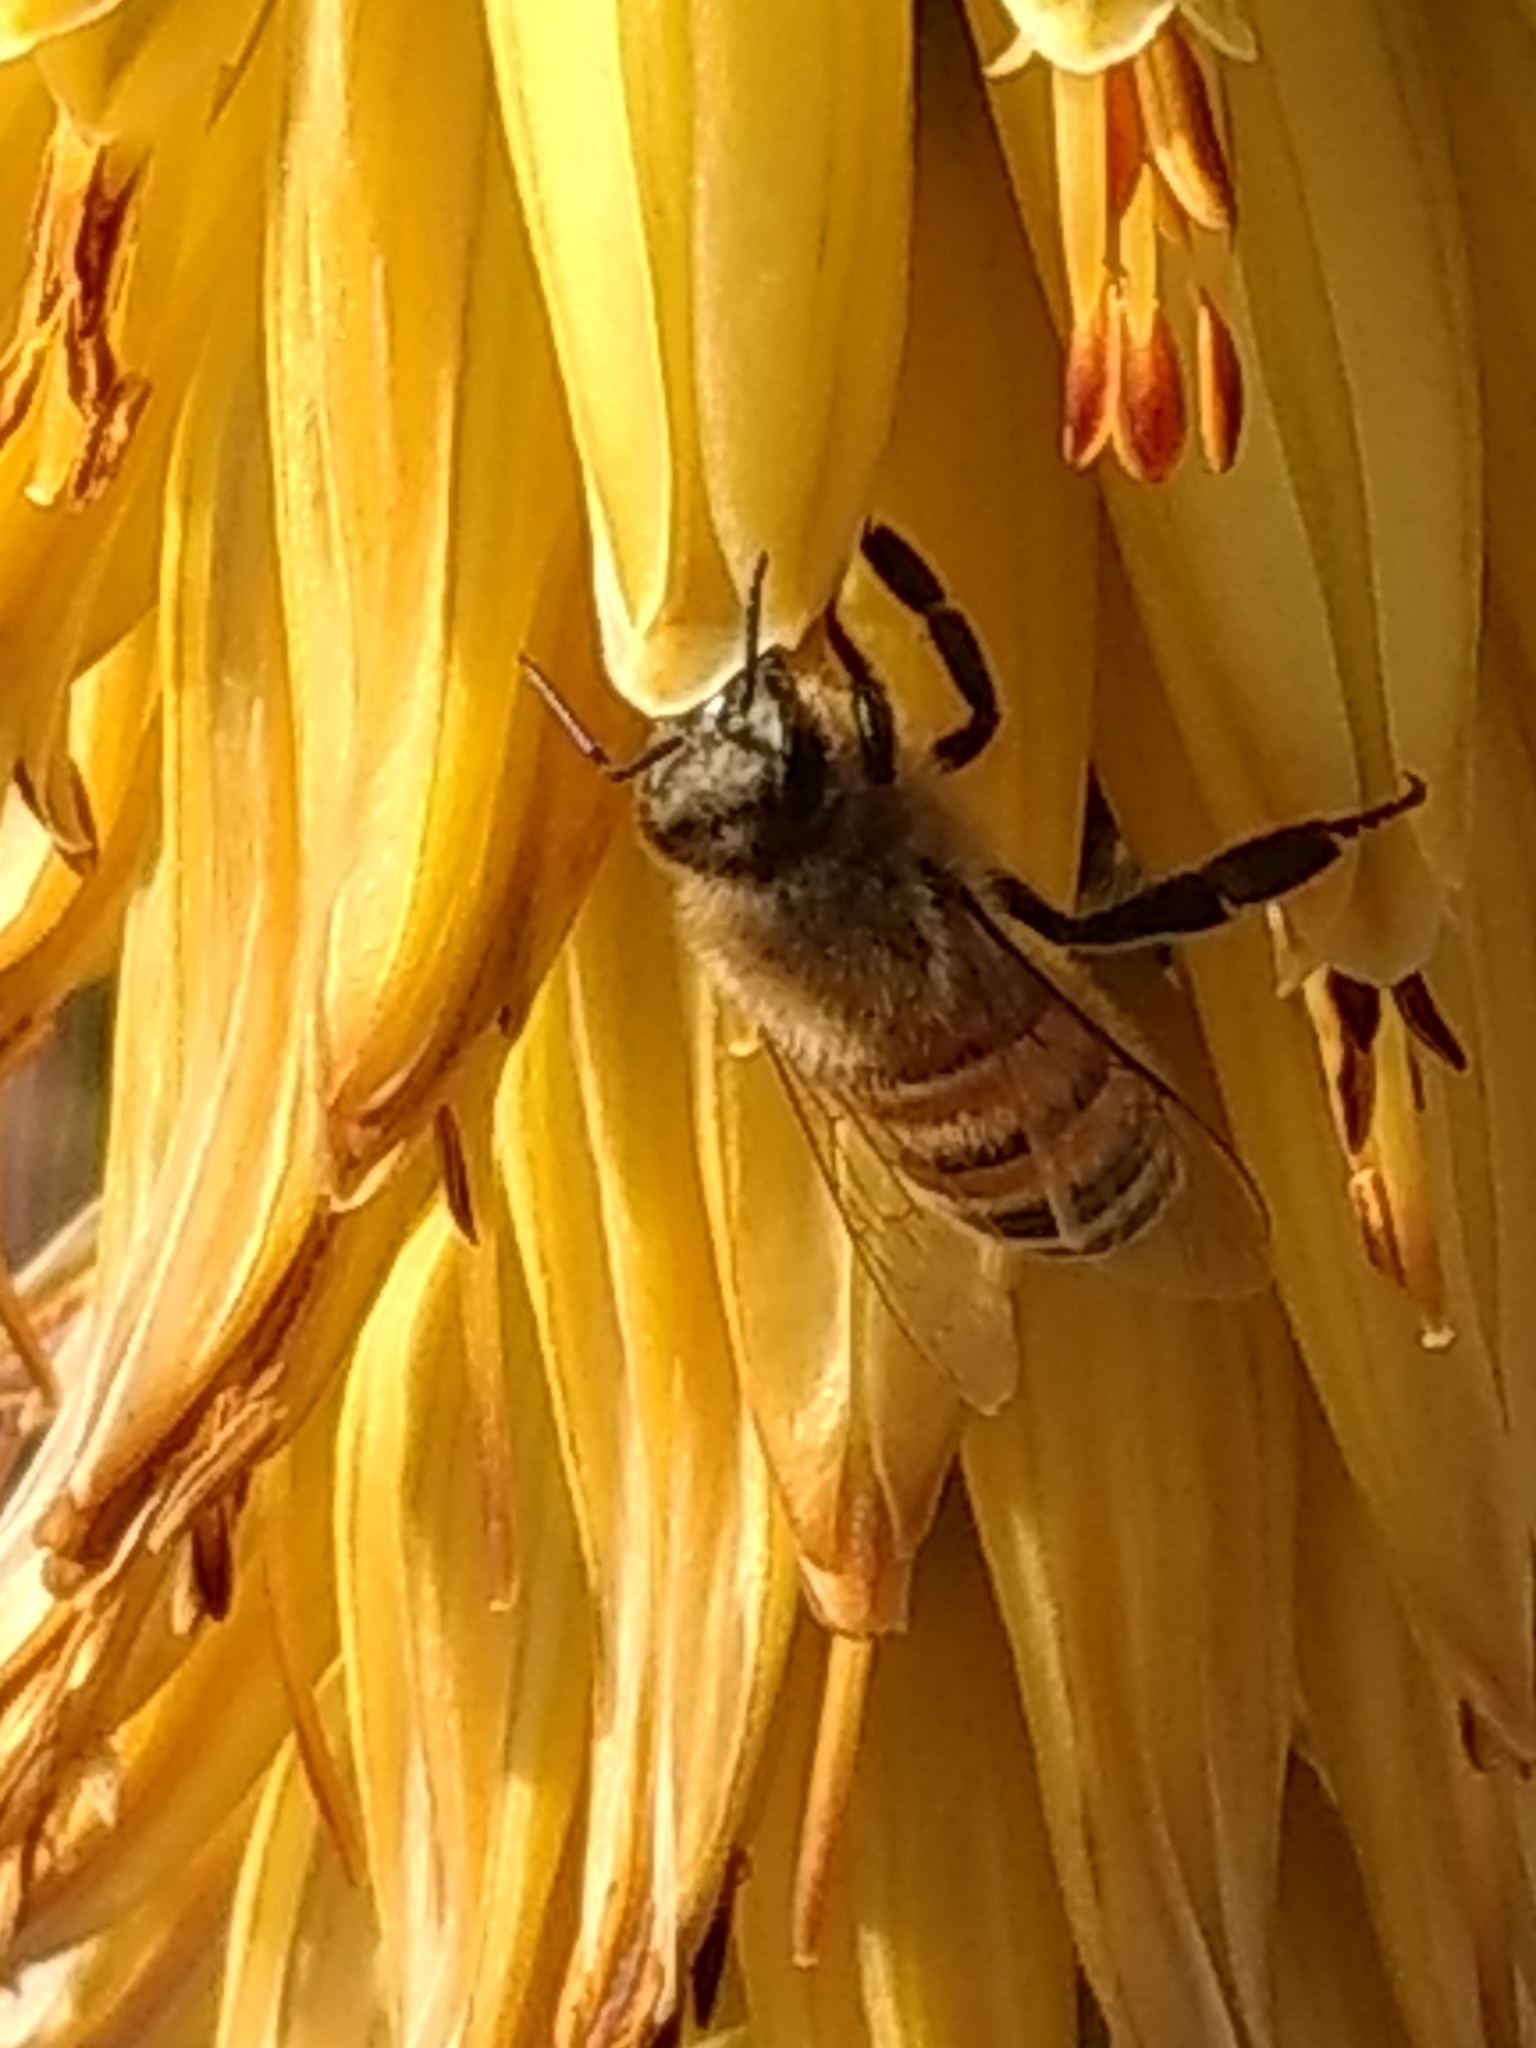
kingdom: Animalia
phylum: Arthropoda
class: Insecta
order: Hymenoptera
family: Apidae
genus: Apis
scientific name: Apis mellifera
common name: Honey bee
